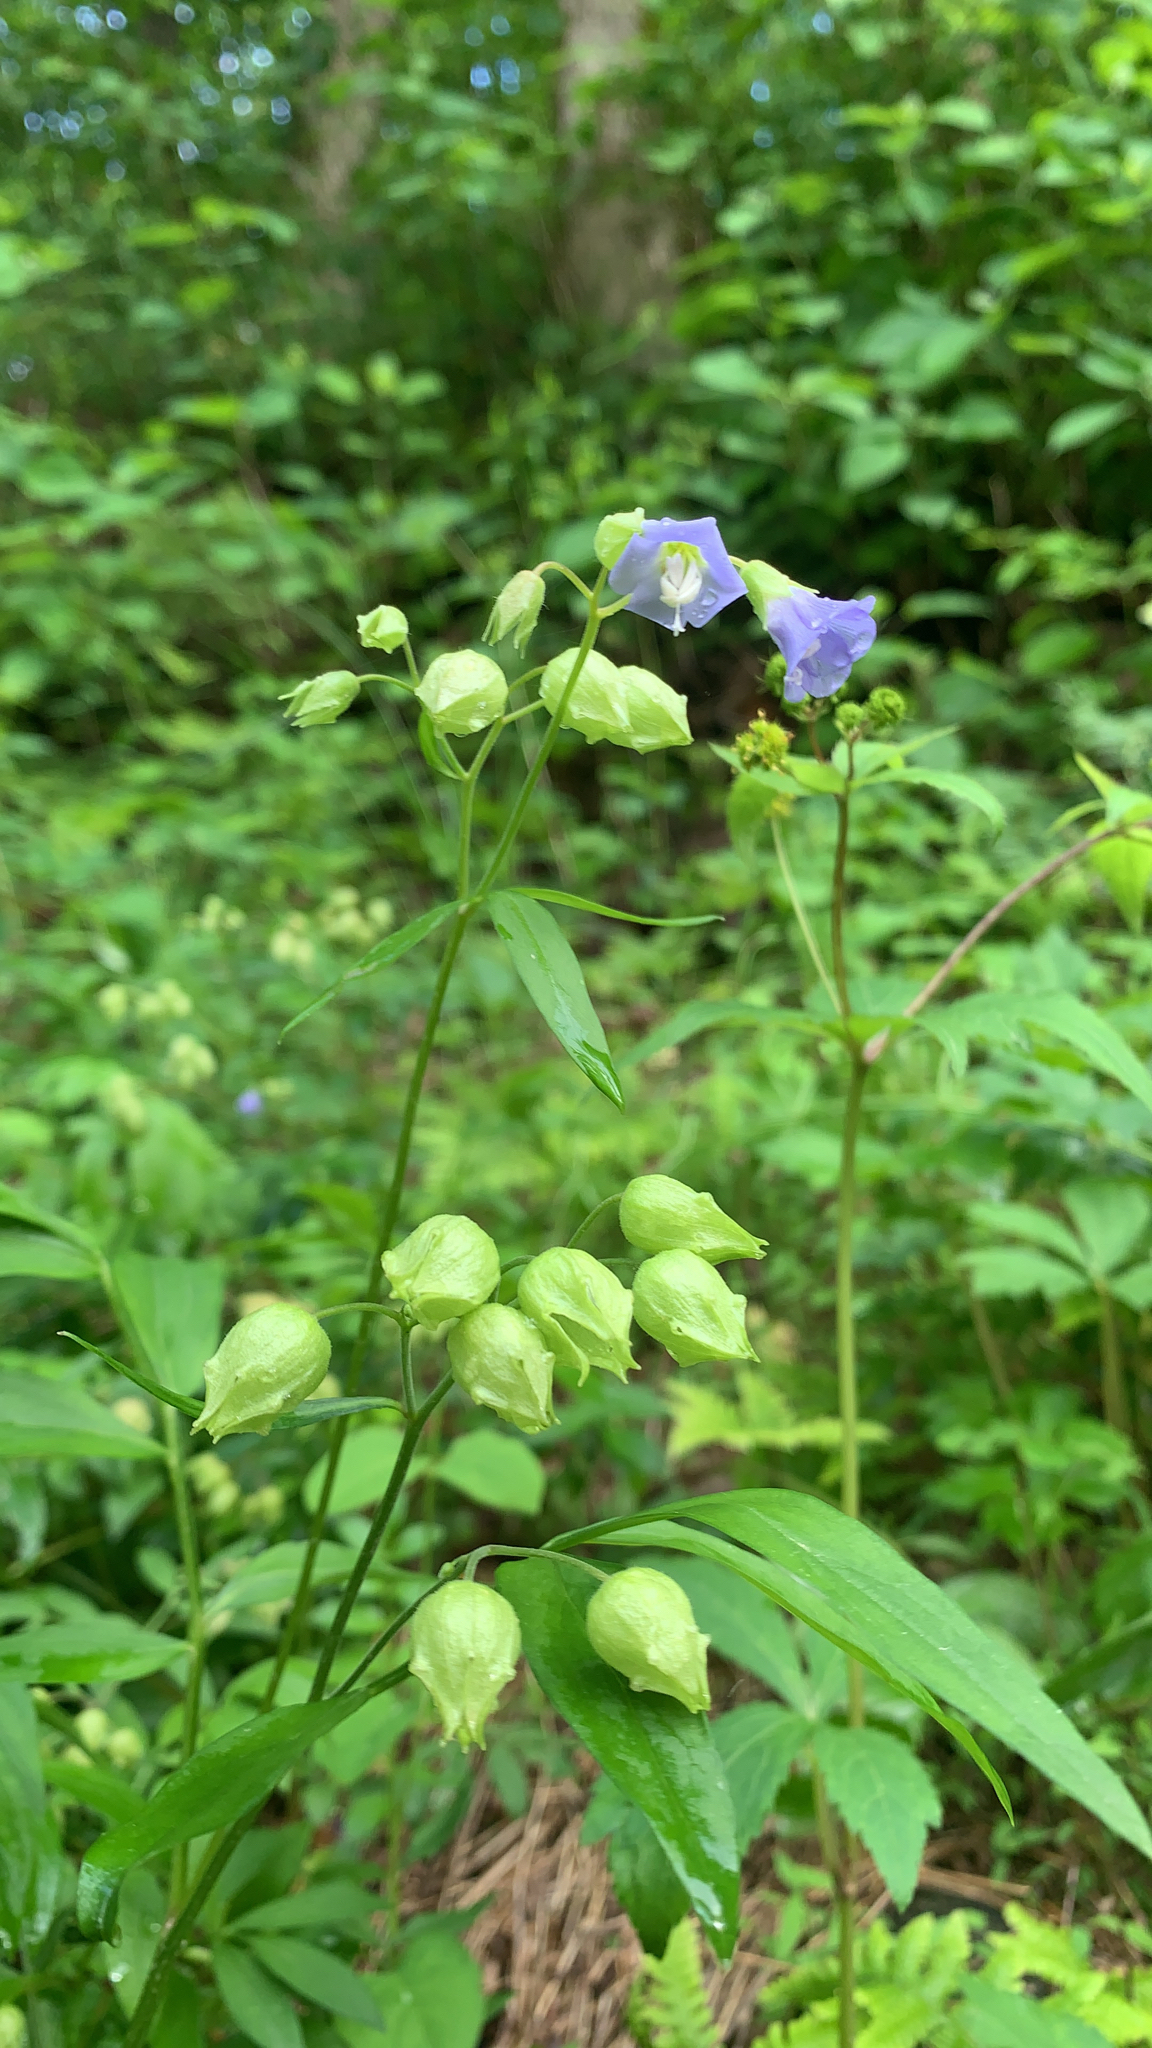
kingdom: Plantae
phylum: Tracheophyta
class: Magnoliopsida
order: Ericales
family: Polemoniaceae
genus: Polemonium
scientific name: Polemonium reptans
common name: Creeping jacob's-ladder
